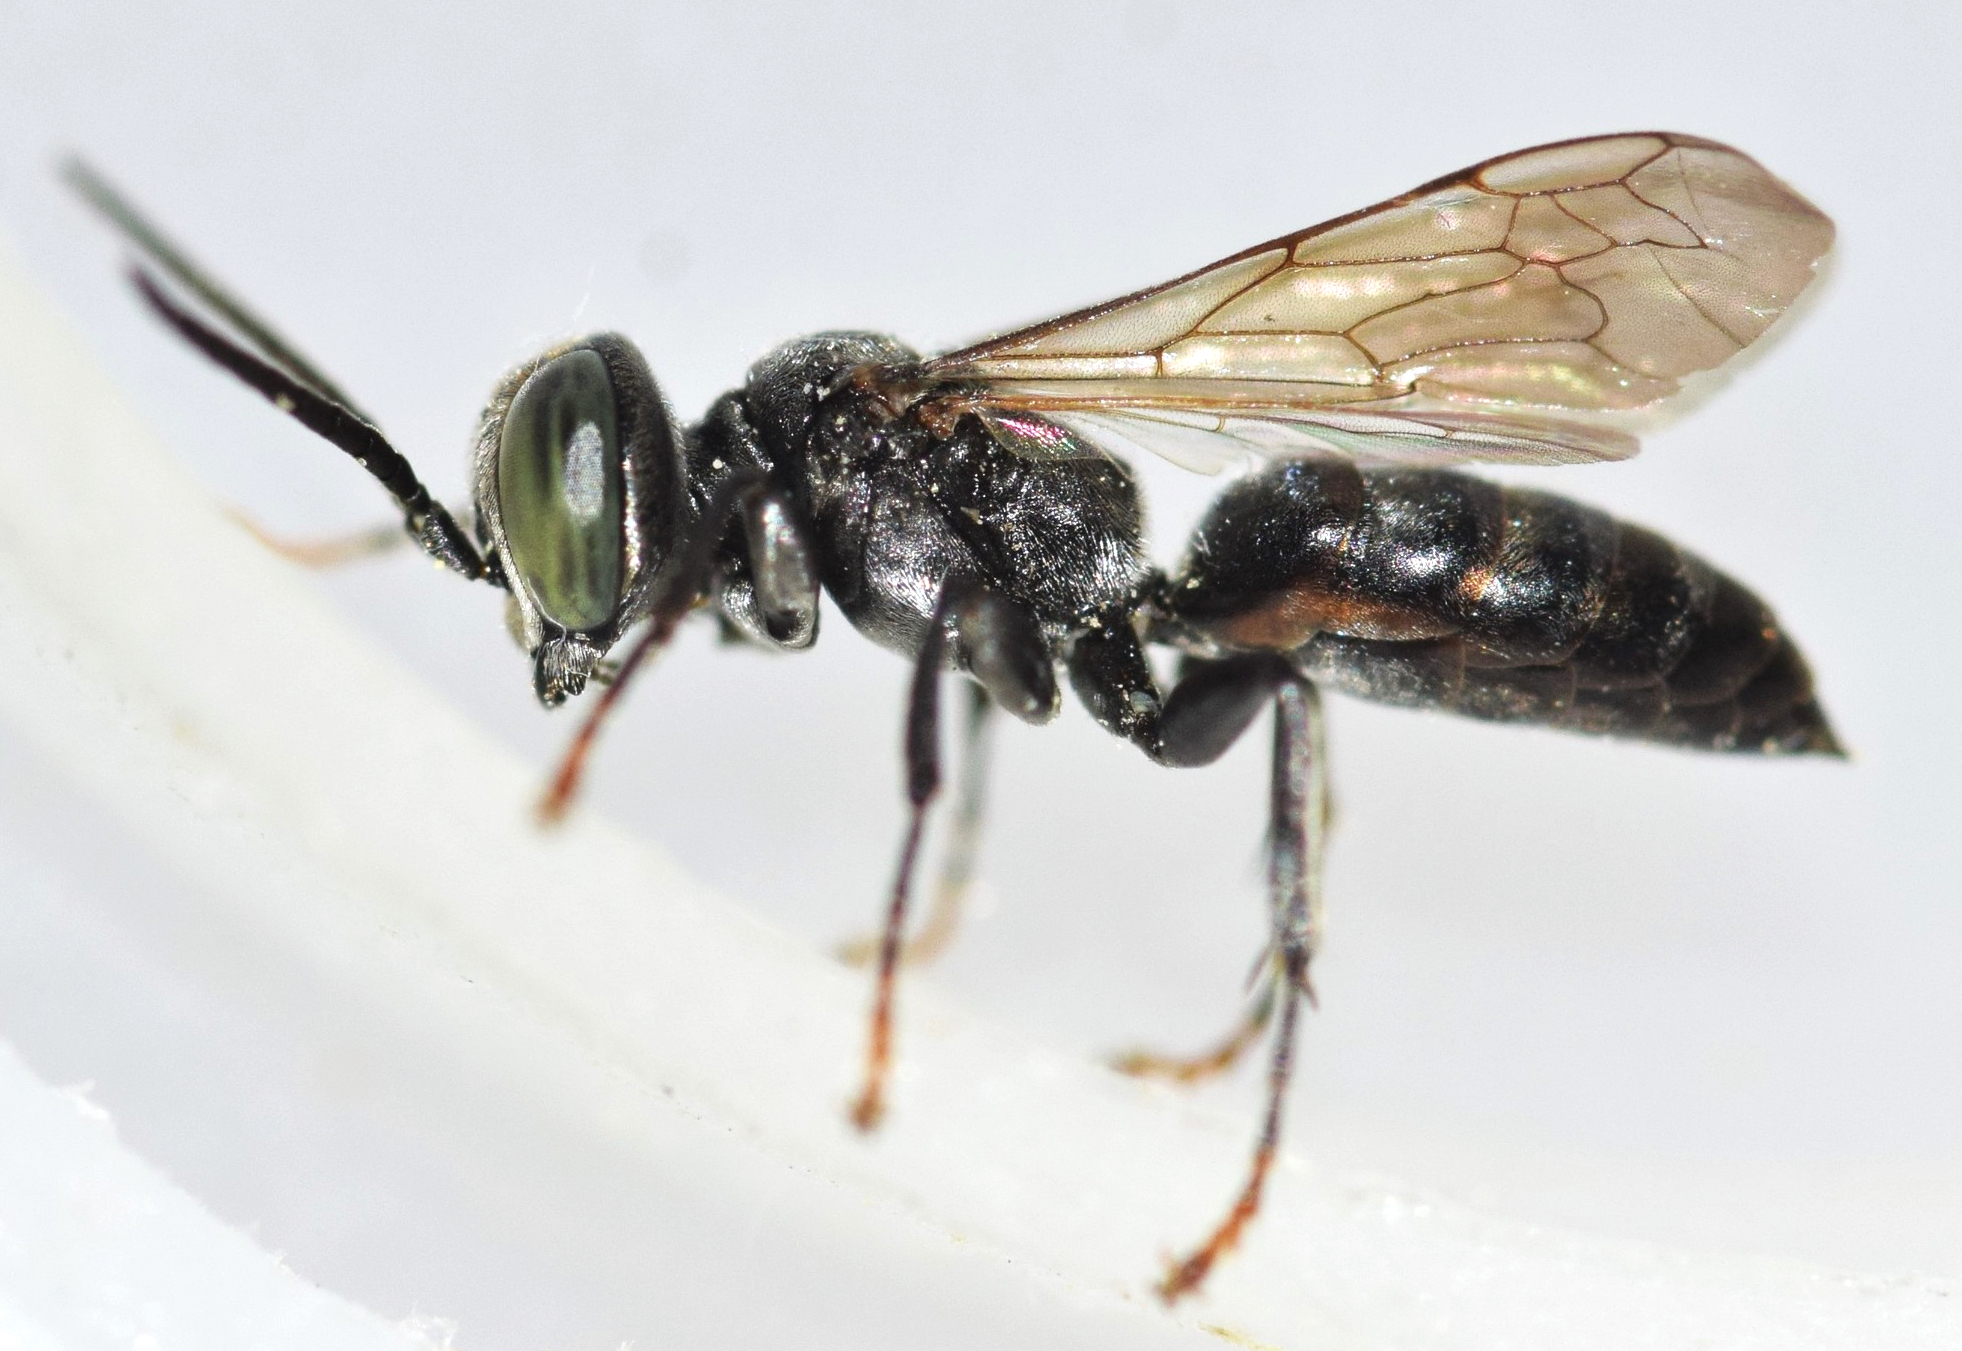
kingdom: Animalia
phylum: Arthropoda
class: Insecta
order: Hymenoptera
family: Crabronidae
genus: Tachysphex
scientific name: Tachysphex pechumani
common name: Antennal-waving wasp
